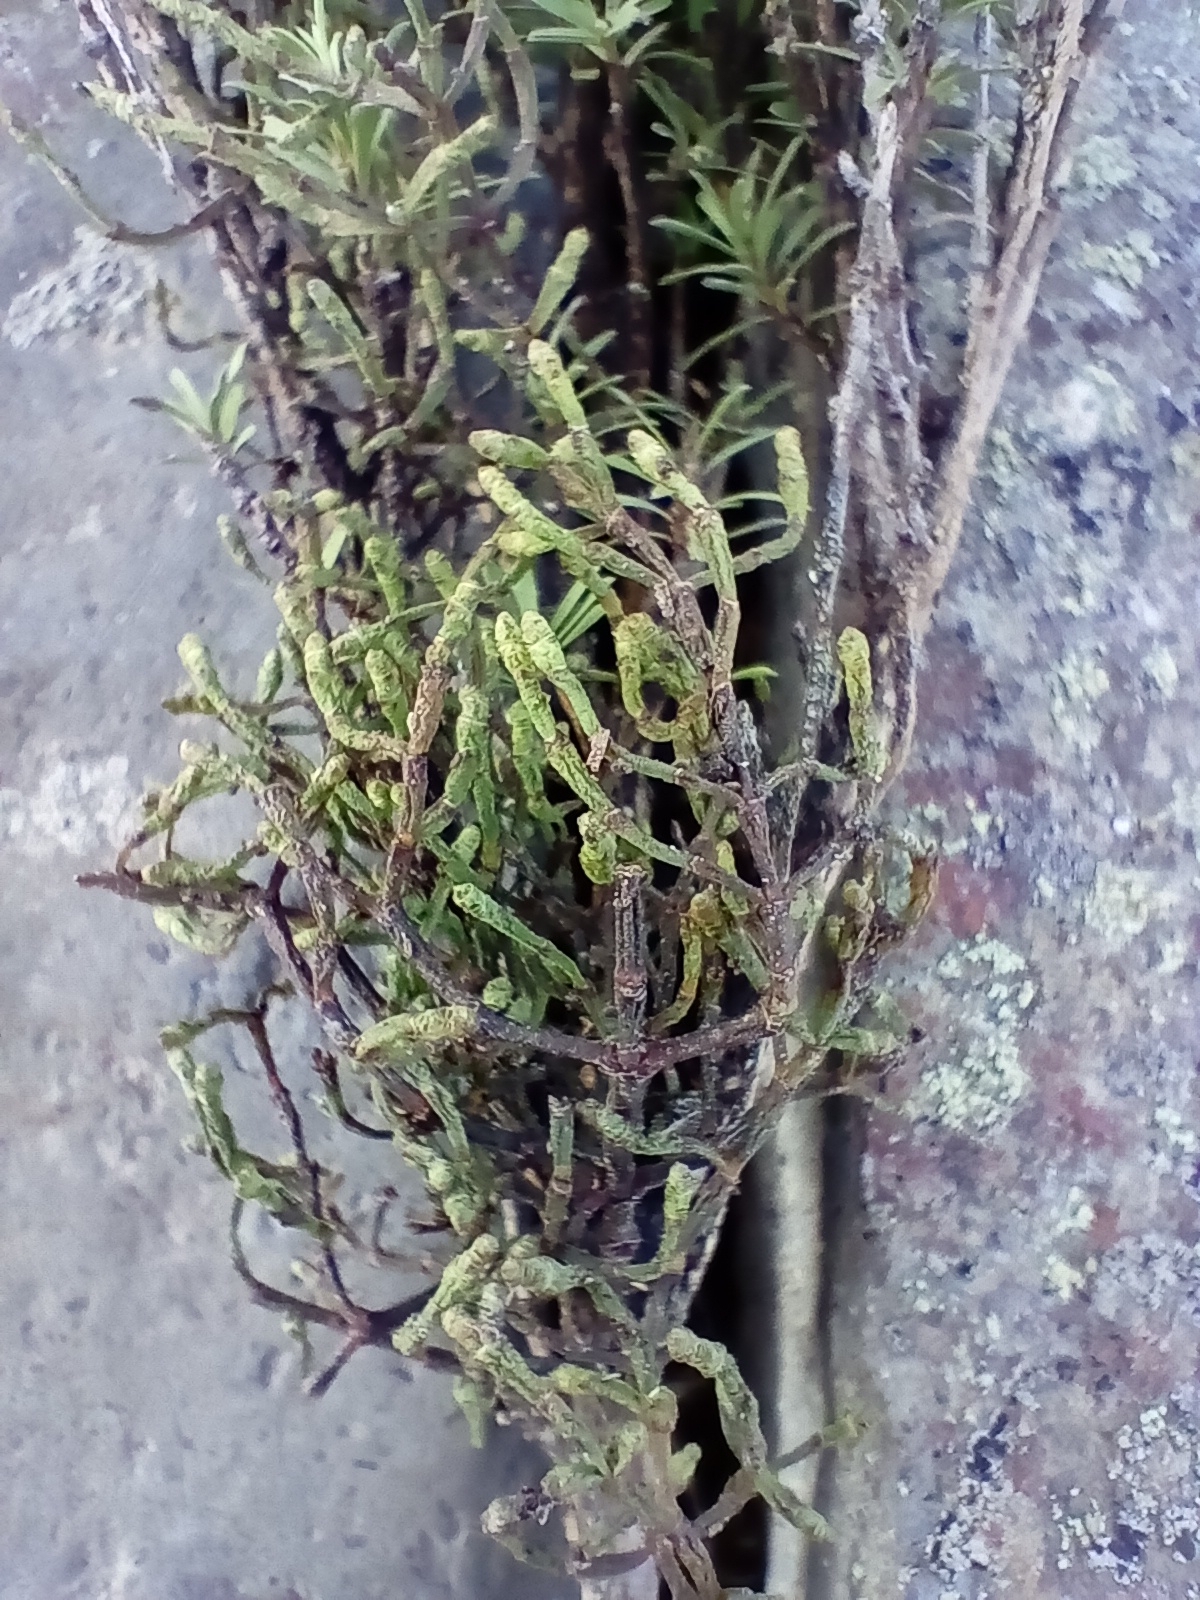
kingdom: Plantae
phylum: Tracheophyta
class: Magnoliopsida
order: Santalales
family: Viscaceae
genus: Korthalsella
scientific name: Korthalsella salicornioides
